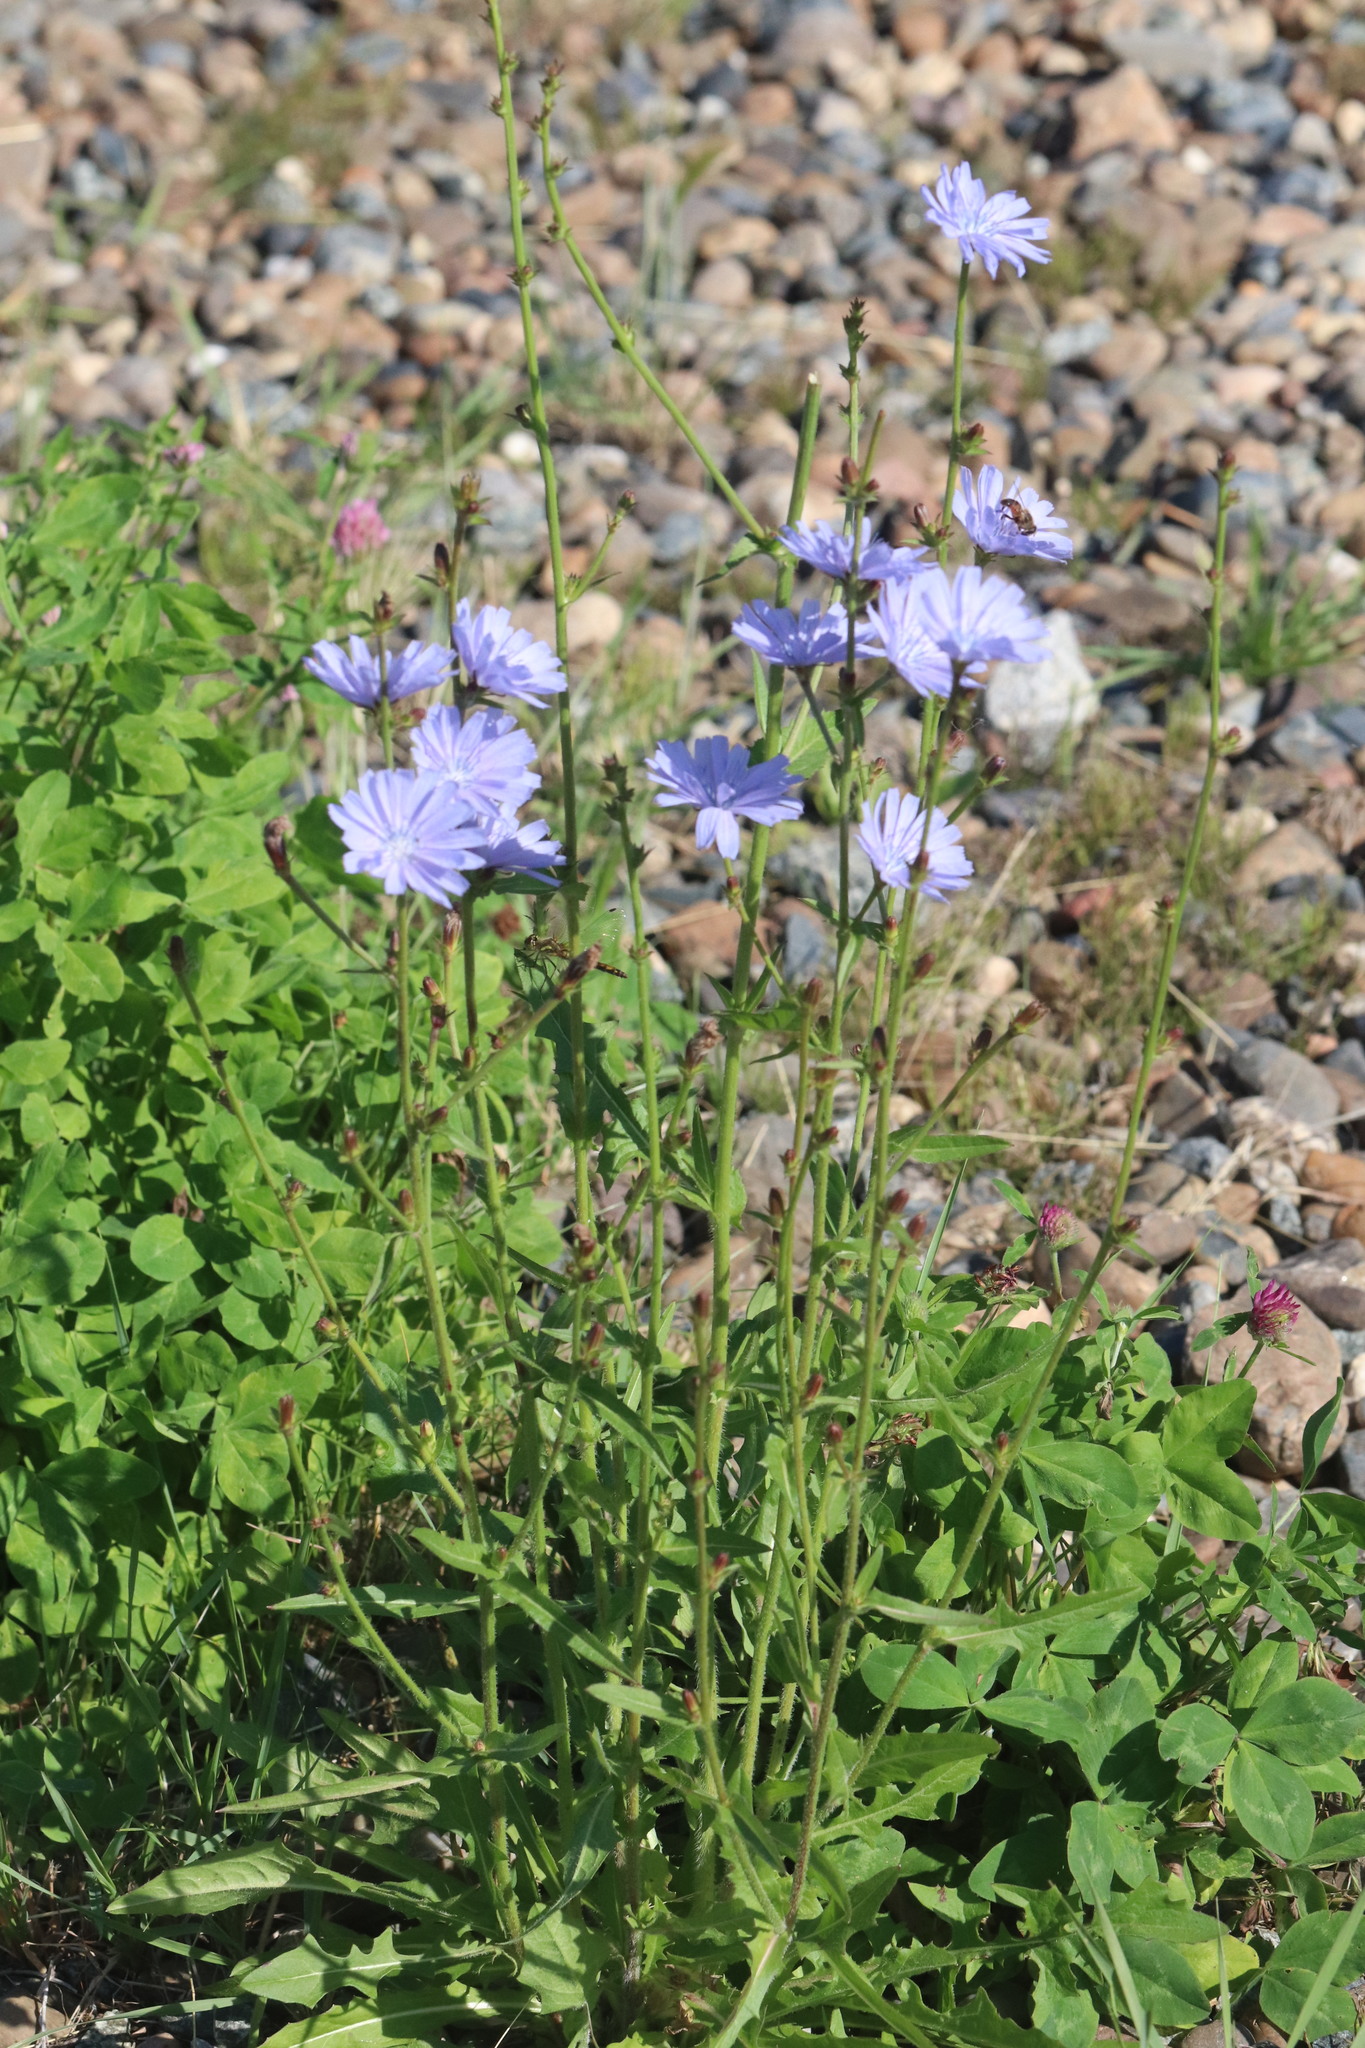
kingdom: Plantae
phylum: Tracheophyta
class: Magnoliopsida
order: Asterales
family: Asteraceae
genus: Cichorium
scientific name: Cichorium intybus
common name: Chicory
